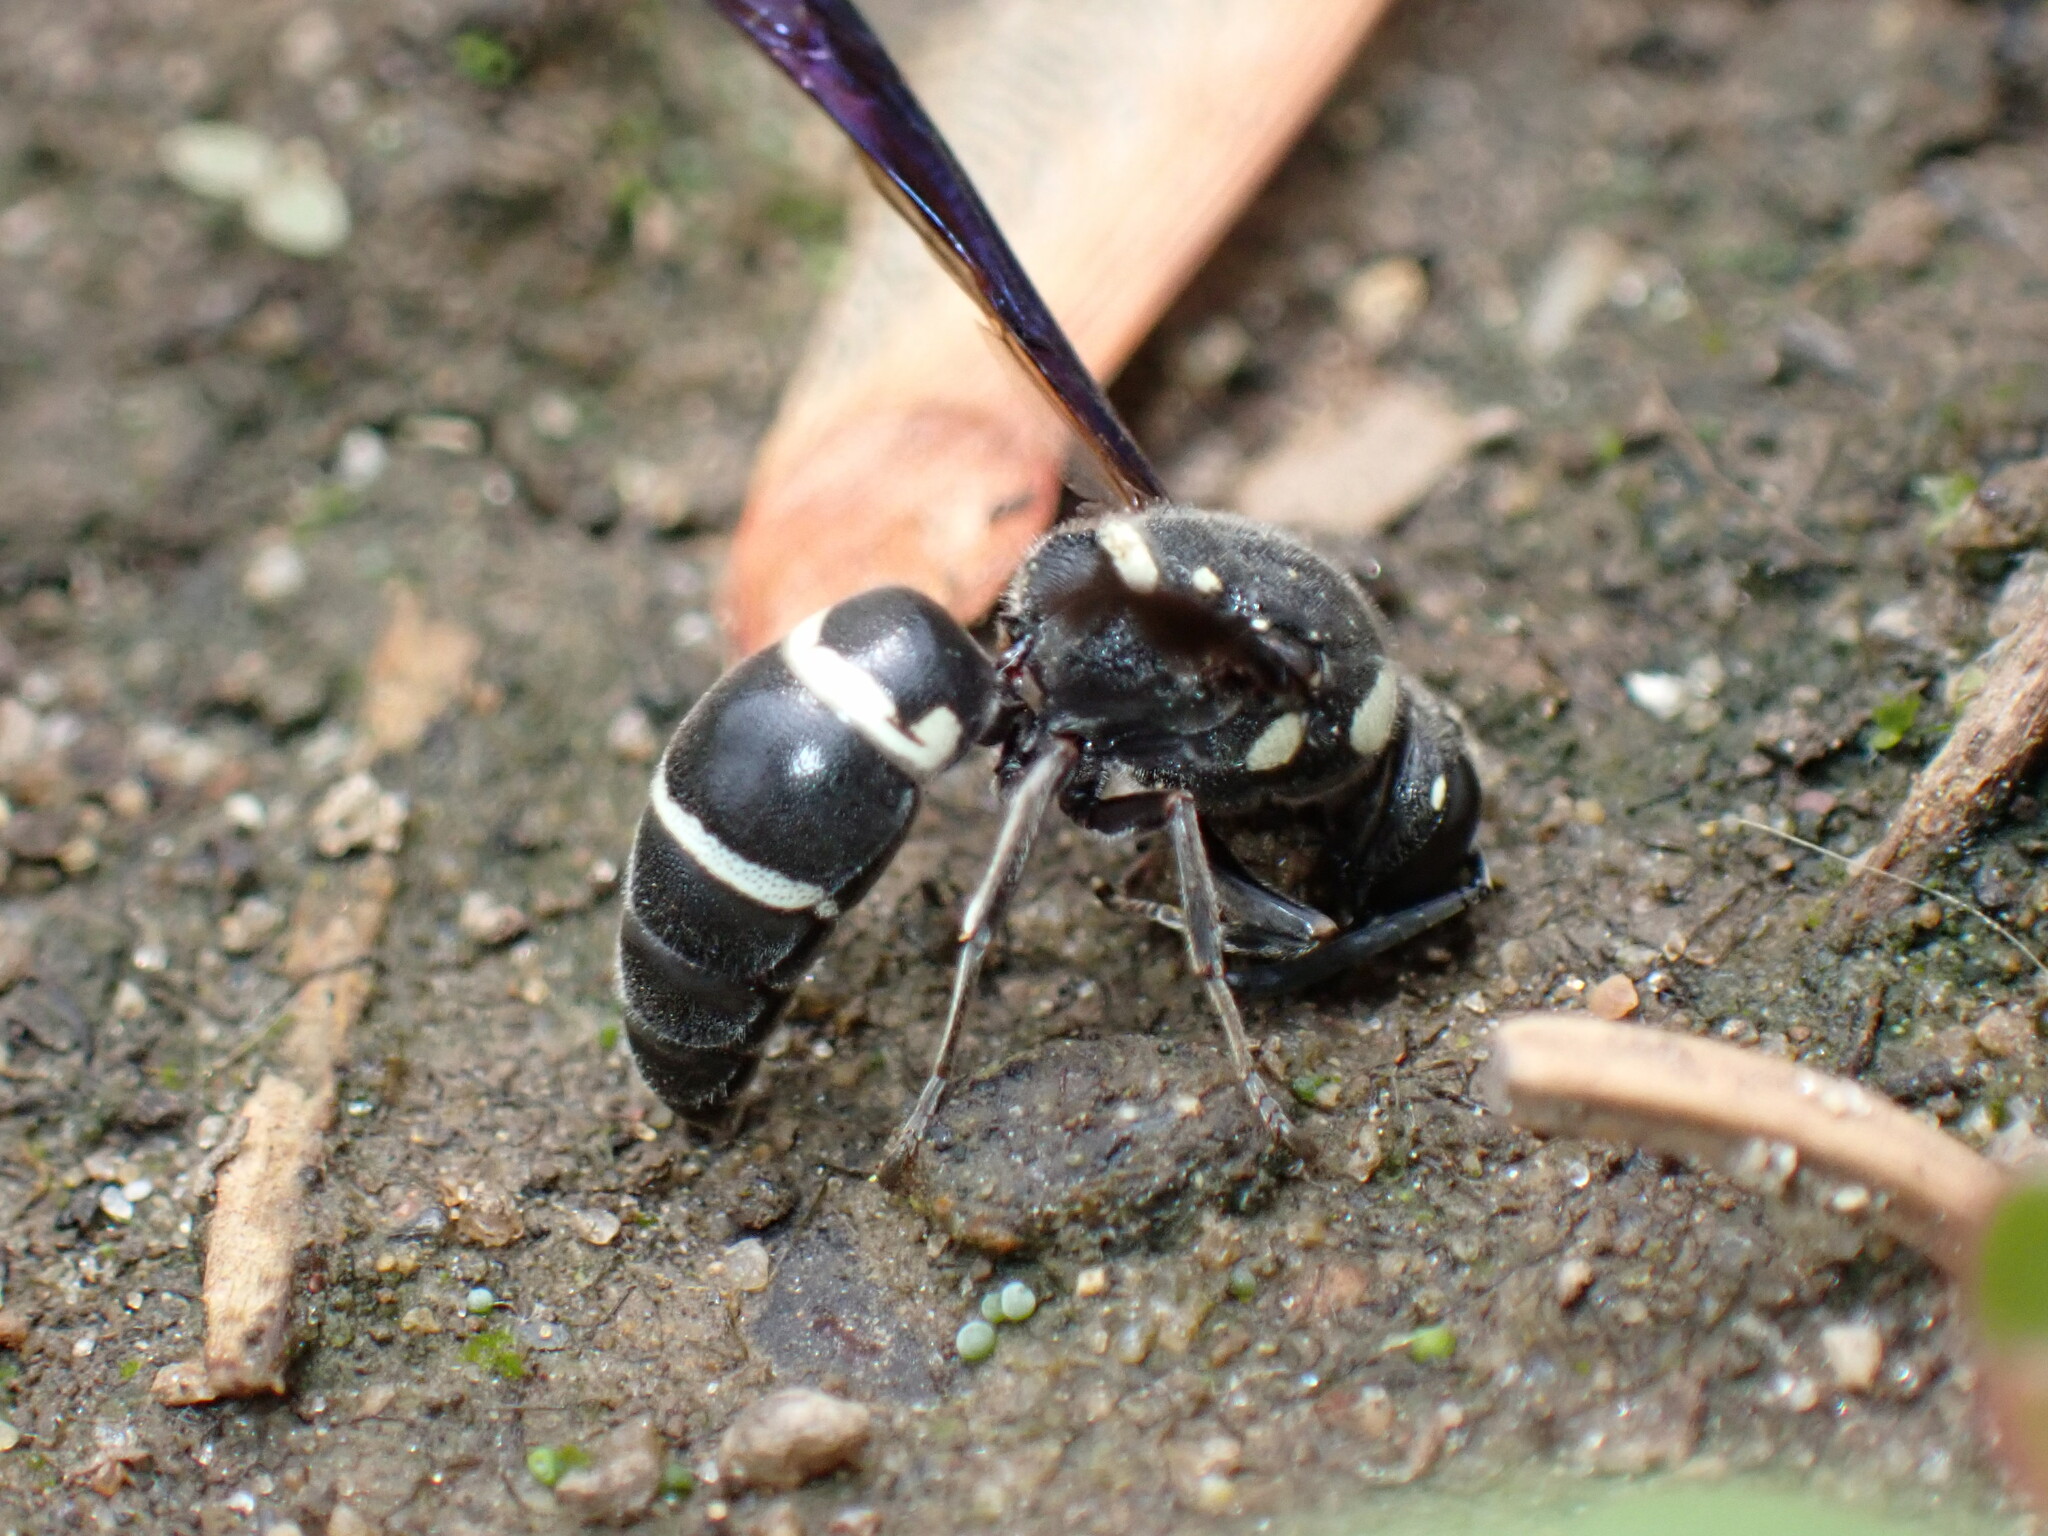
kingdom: Animalia
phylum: Arthropoda
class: Insecta
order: Hymenoptera
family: Eumenidae
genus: Euodynerus
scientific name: Euodynerus megaera
